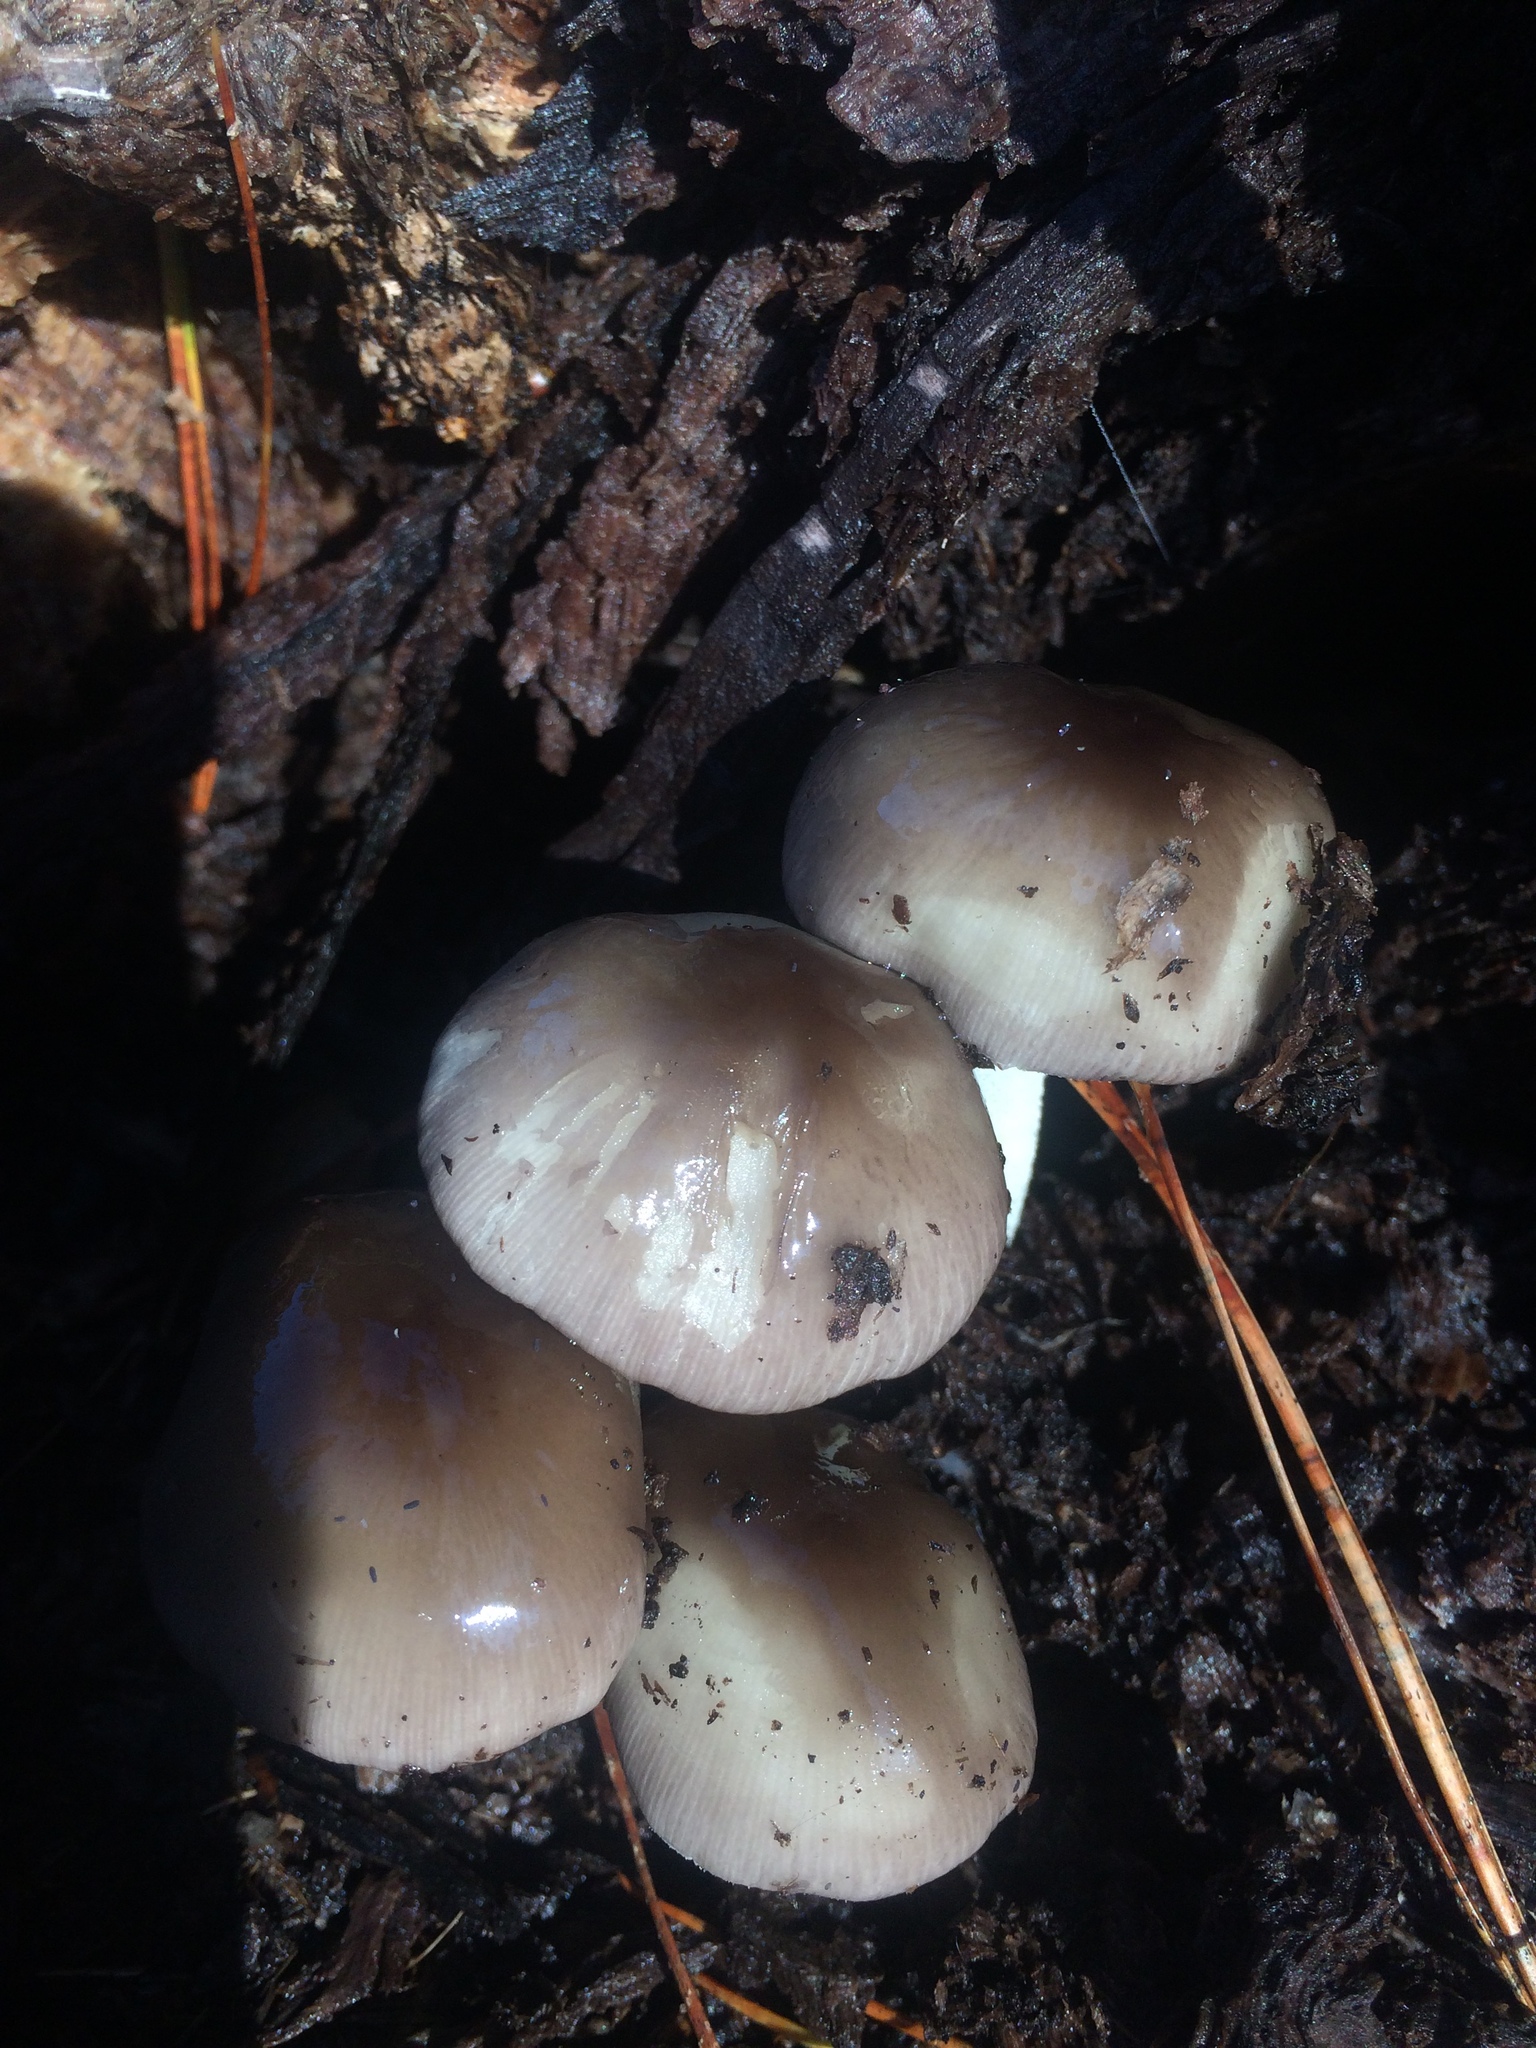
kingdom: Fungi
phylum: Basidiomycota
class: Agaricomycetes
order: Agaricales
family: Bolbitiaceae
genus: Bolbitius
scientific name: Bolbitius reticulatus
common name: Netted fieldcap
